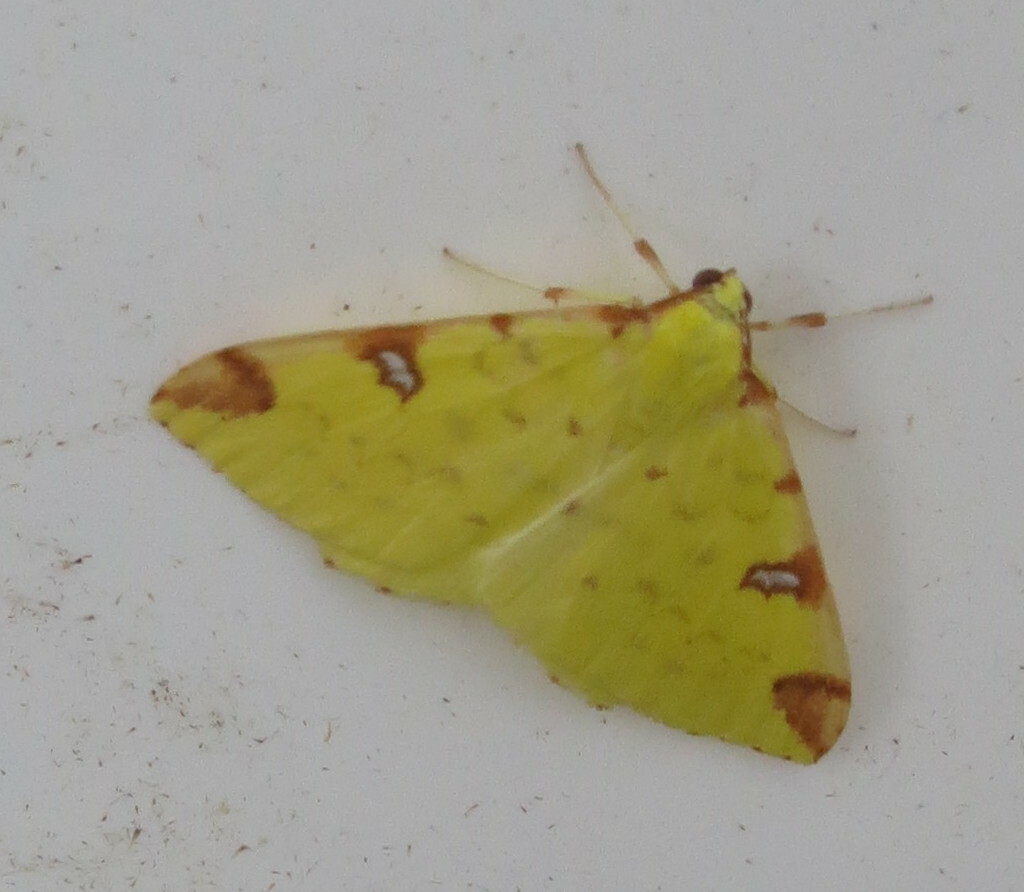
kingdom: Animalia
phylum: Arthropoda
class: Insecta
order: Lepidoptera
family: Geometridae
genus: Opisthograptis
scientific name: Opisthograptis luteolata
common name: Brimstone moth
